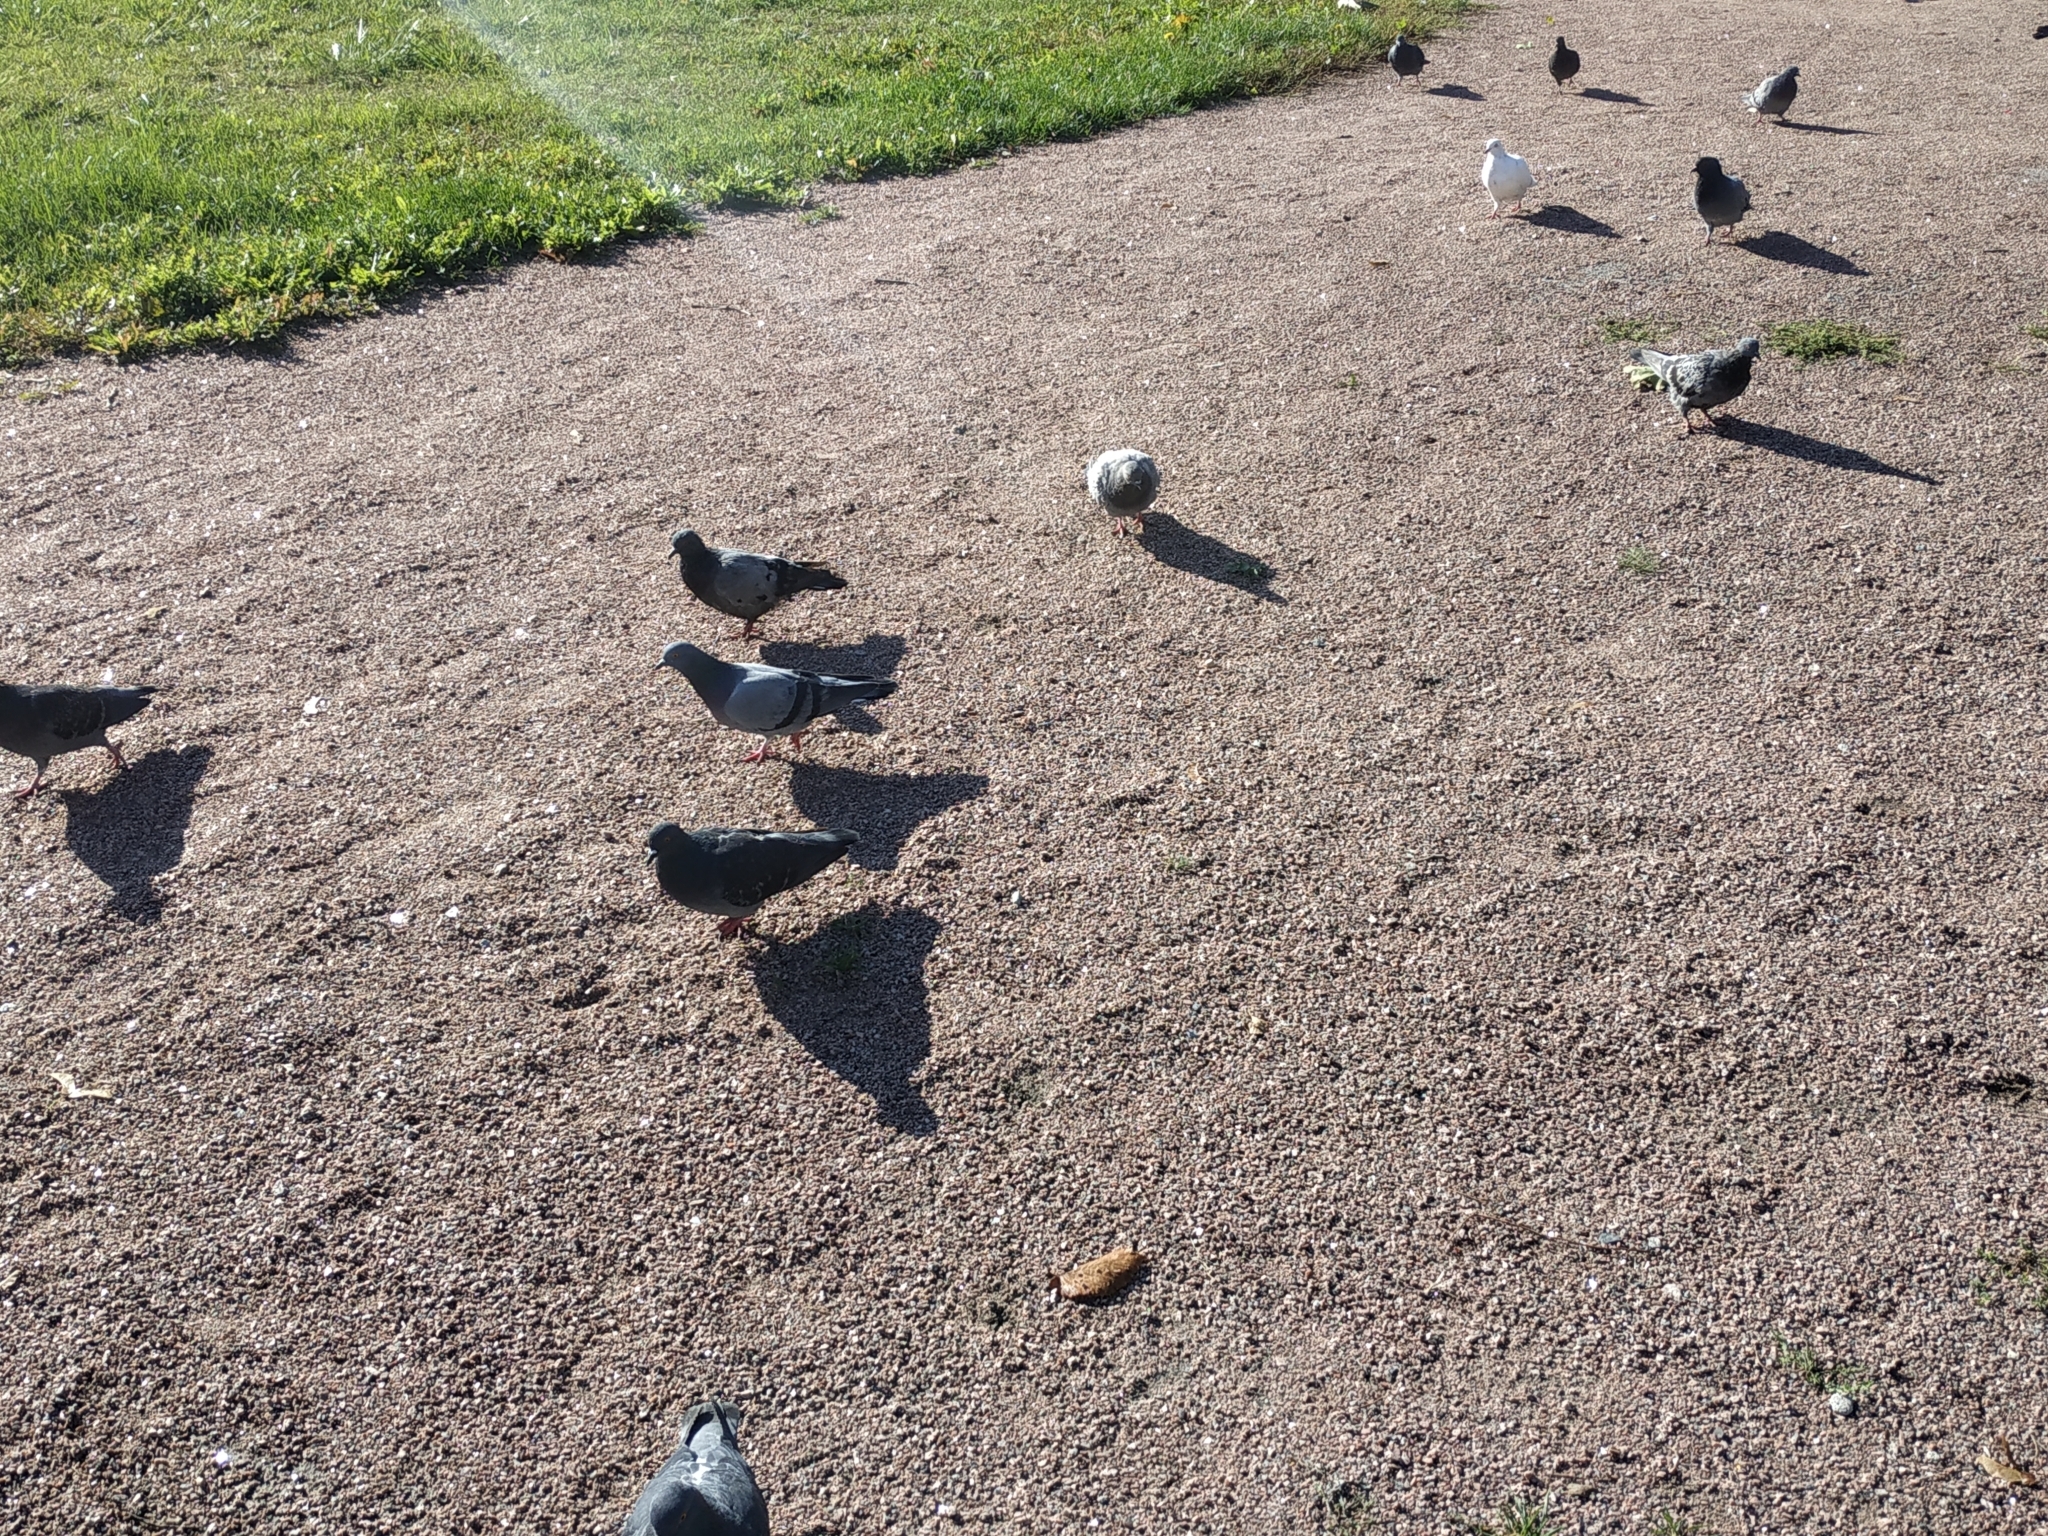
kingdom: Animalia
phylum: Chordata
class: Aves
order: Columbiformes
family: Columbidae
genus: Columba
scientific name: Columba livia
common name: Rock pigeon
